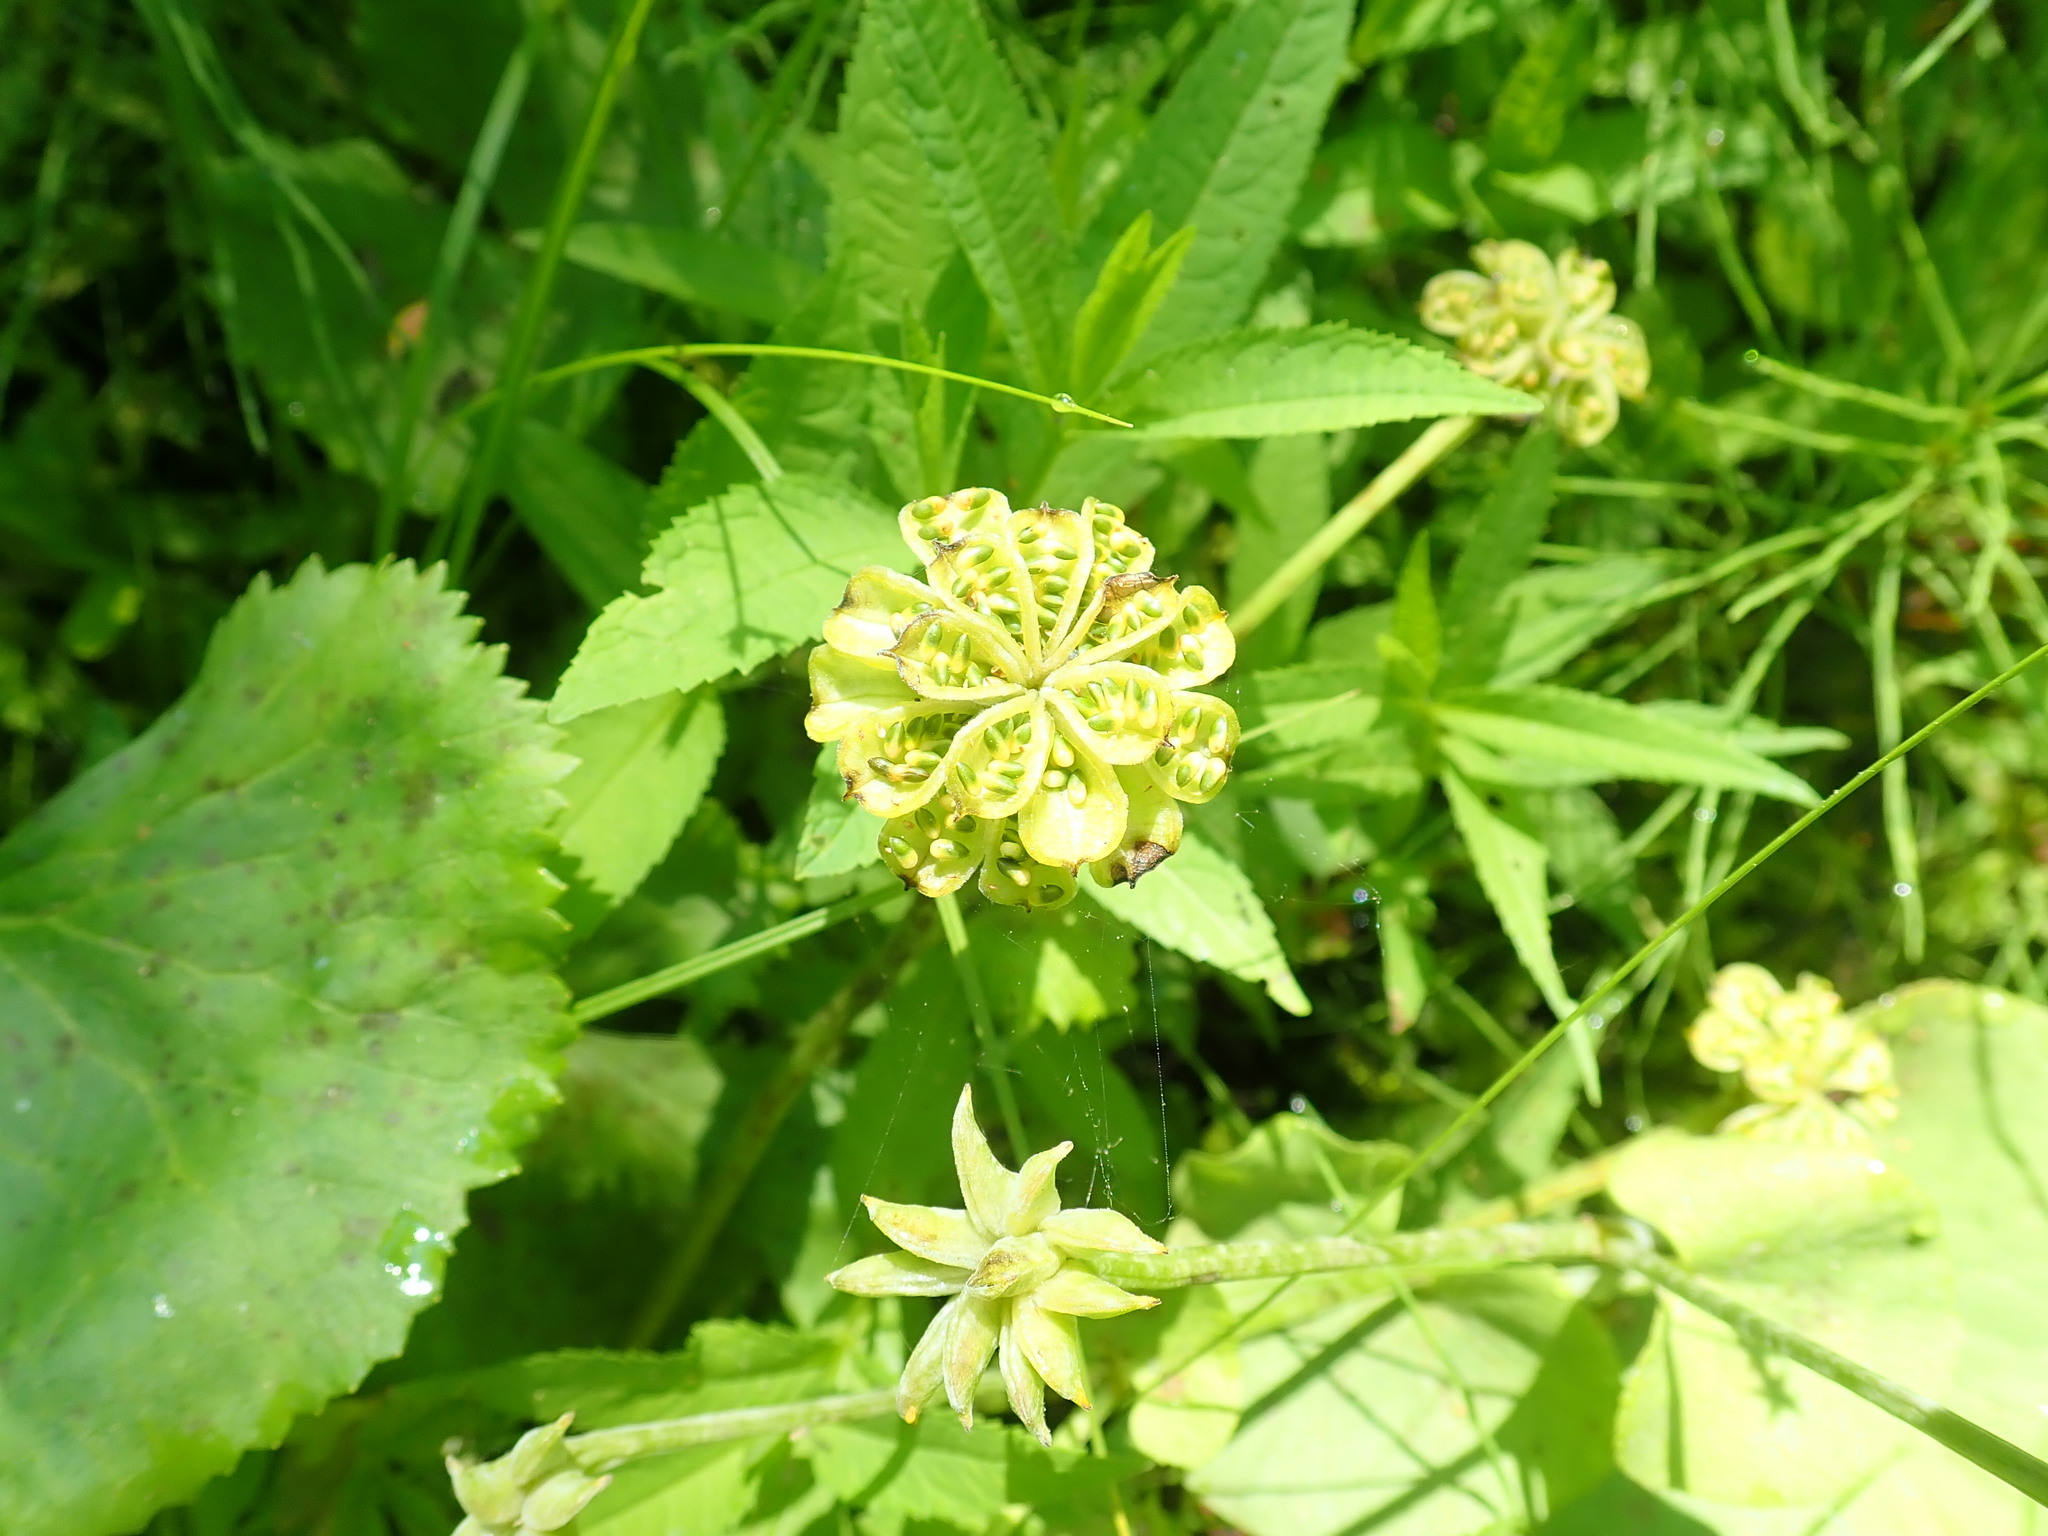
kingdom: Plantae
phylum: Tracheophyta
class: Magnoliopsida
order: Ranunculales
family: Ranunculaceae
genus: Caltha
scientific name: Caltha palustris
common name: Marsh marigold
